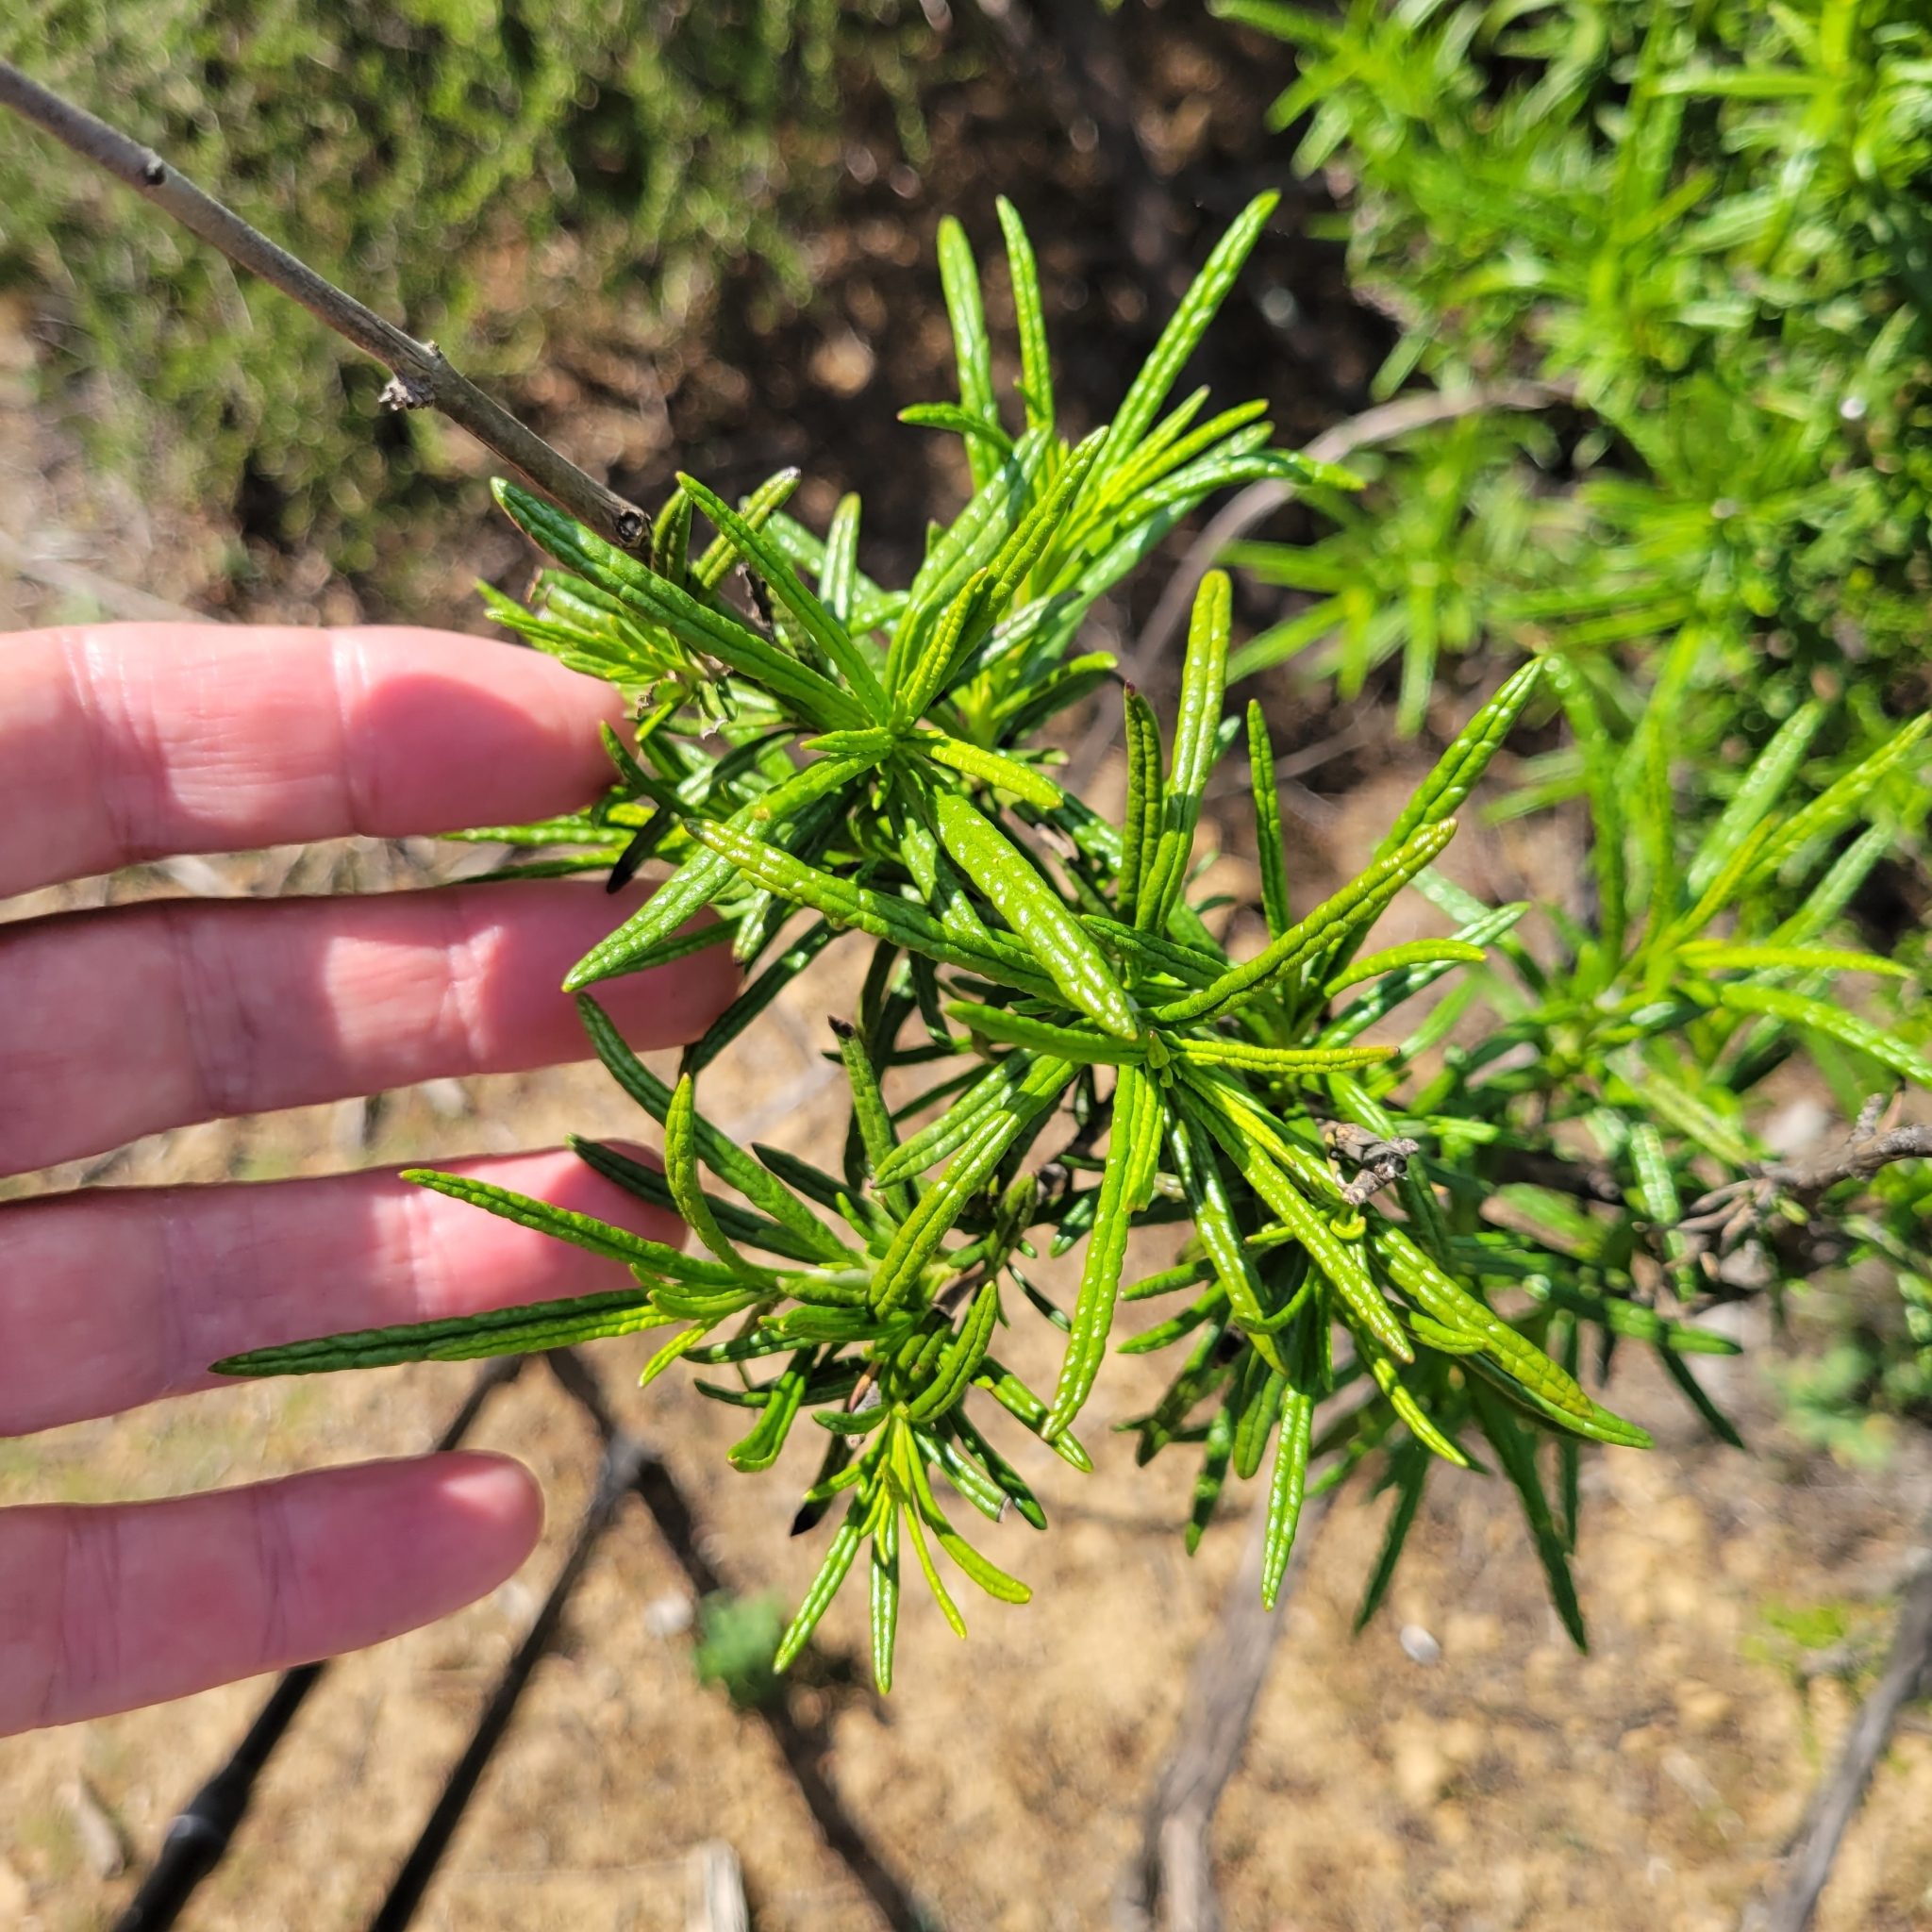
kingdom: Plantae
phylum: Tracheophyta
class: Magnoliopsida
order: Lamiales
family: Lamiaceae
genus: Trichostema
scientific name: Trichostema lanatum
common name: Woolly bluecurls
